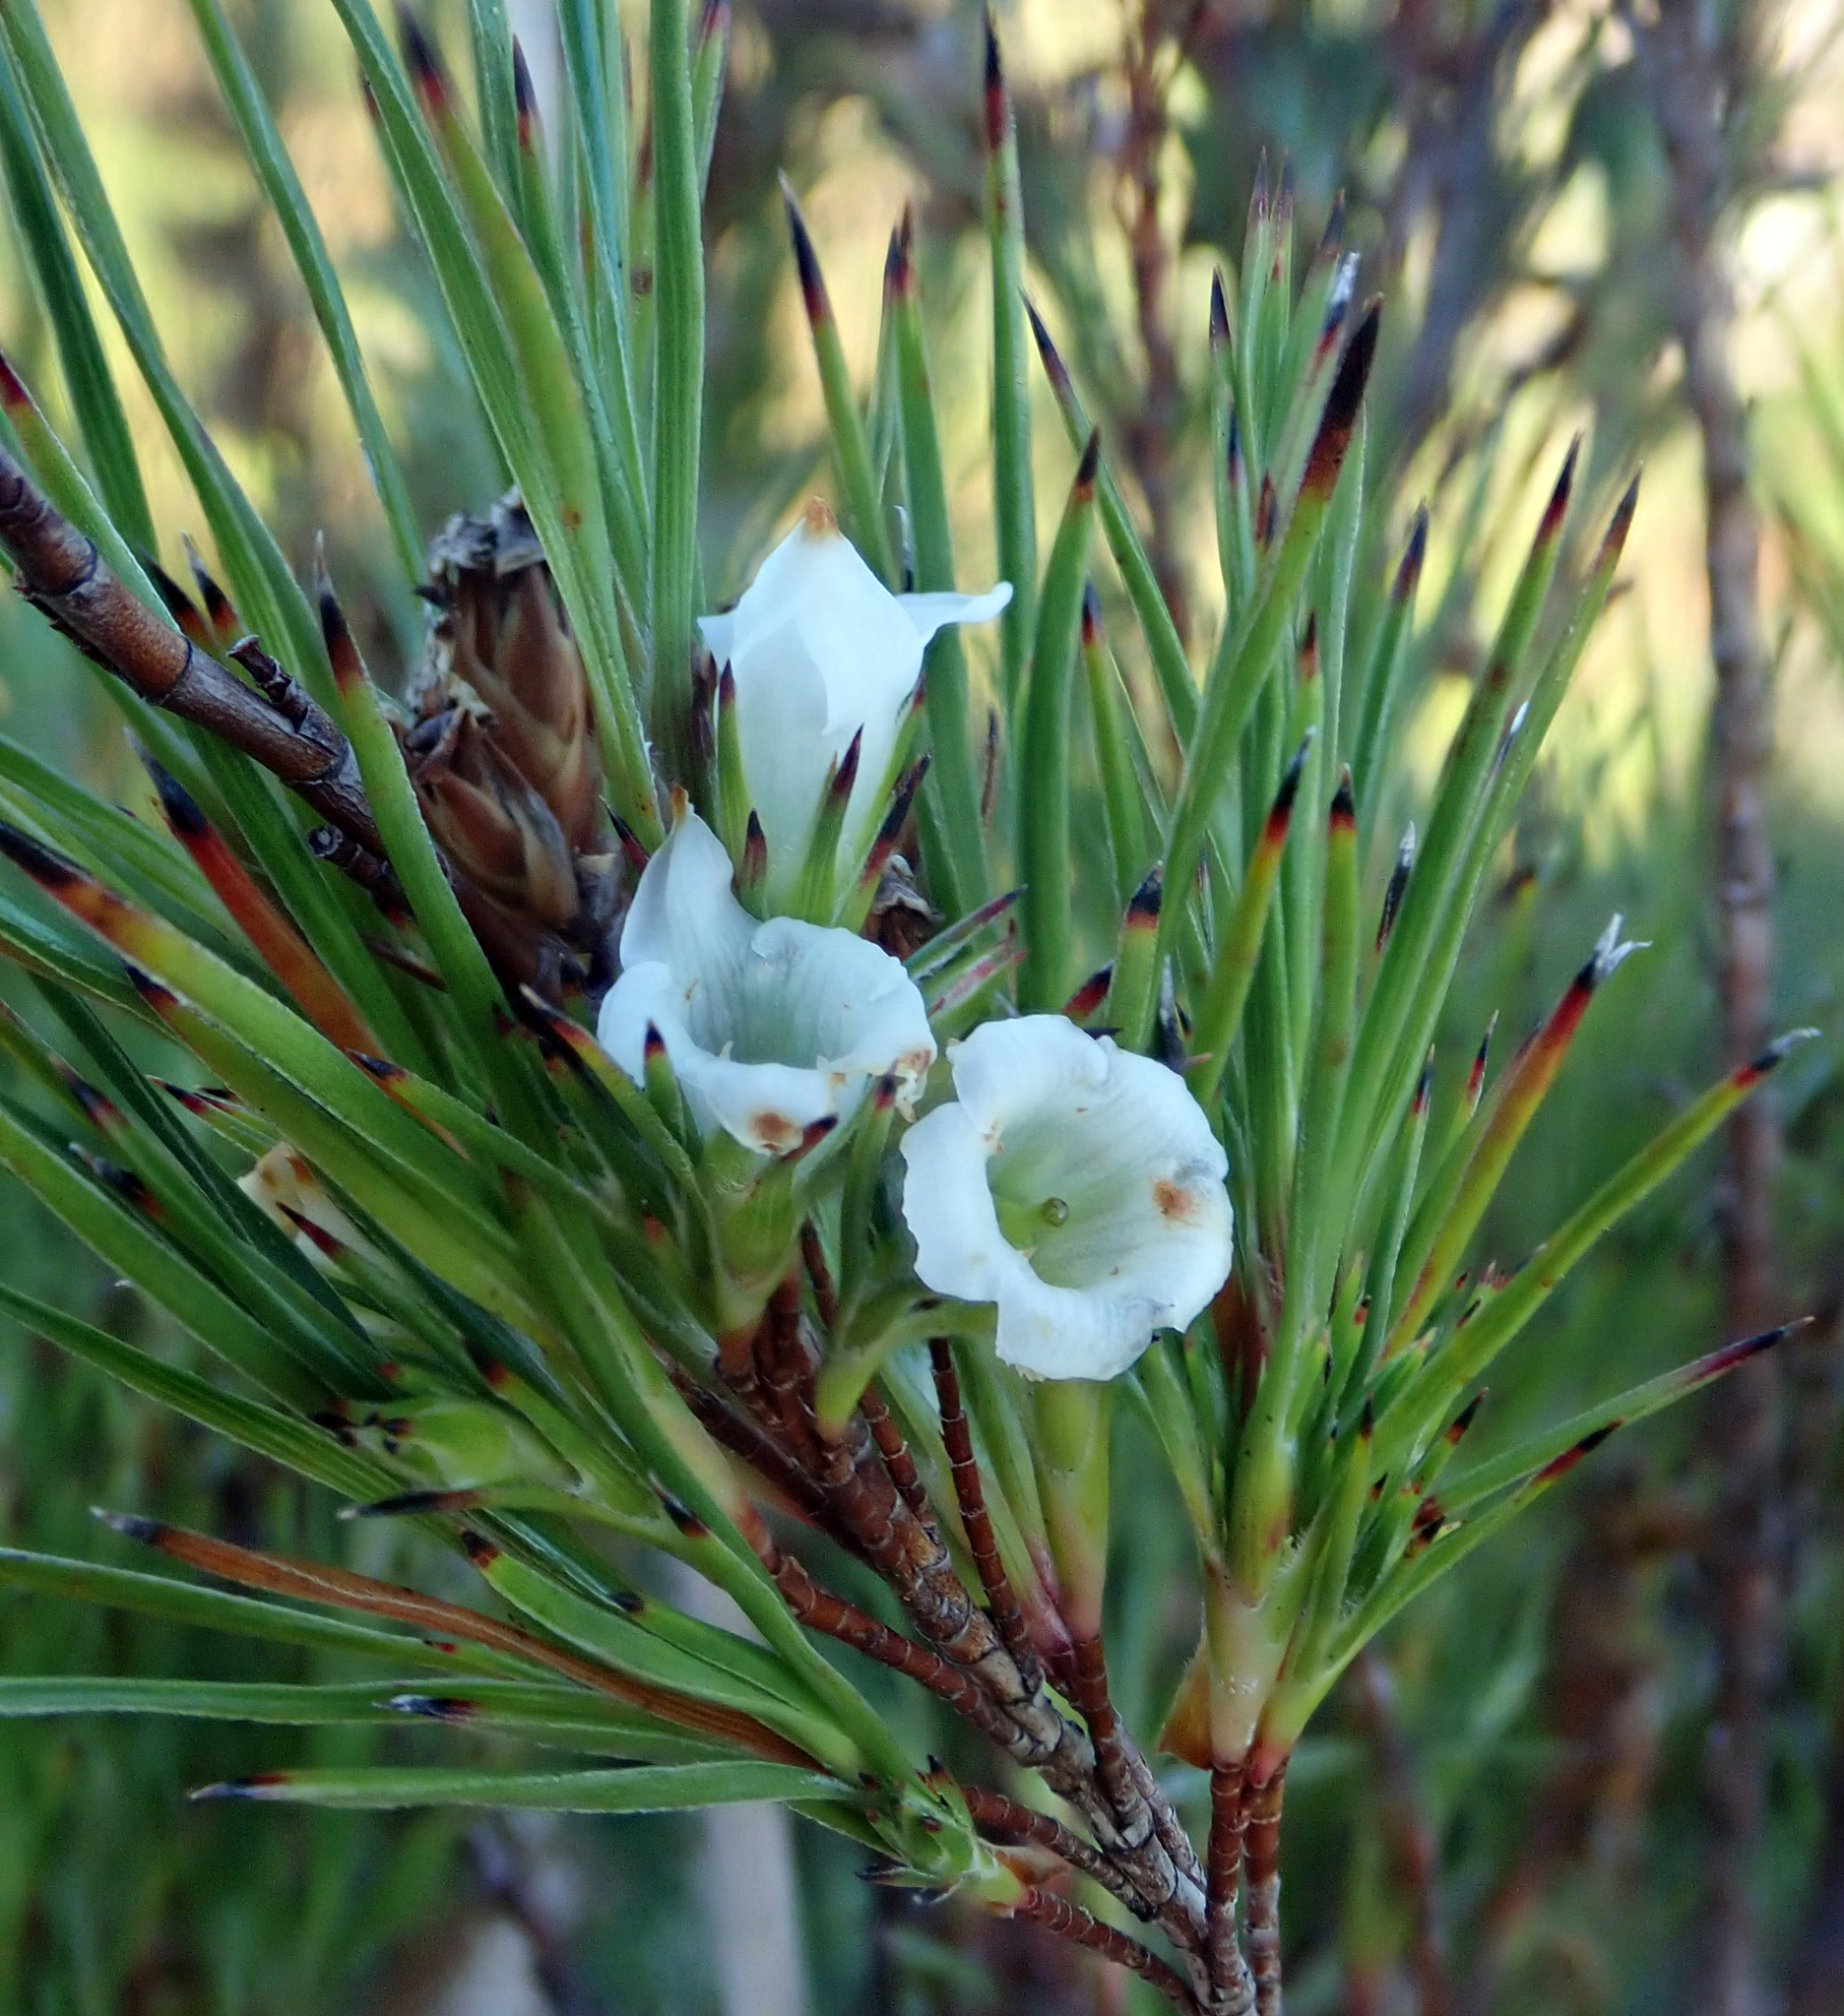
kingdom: Plantae
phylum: Tracheophyta
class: Magnoliopsida
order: Ericales
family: Ericaceae
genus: Dracophyllum
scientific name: Dracophyllum scoparium
